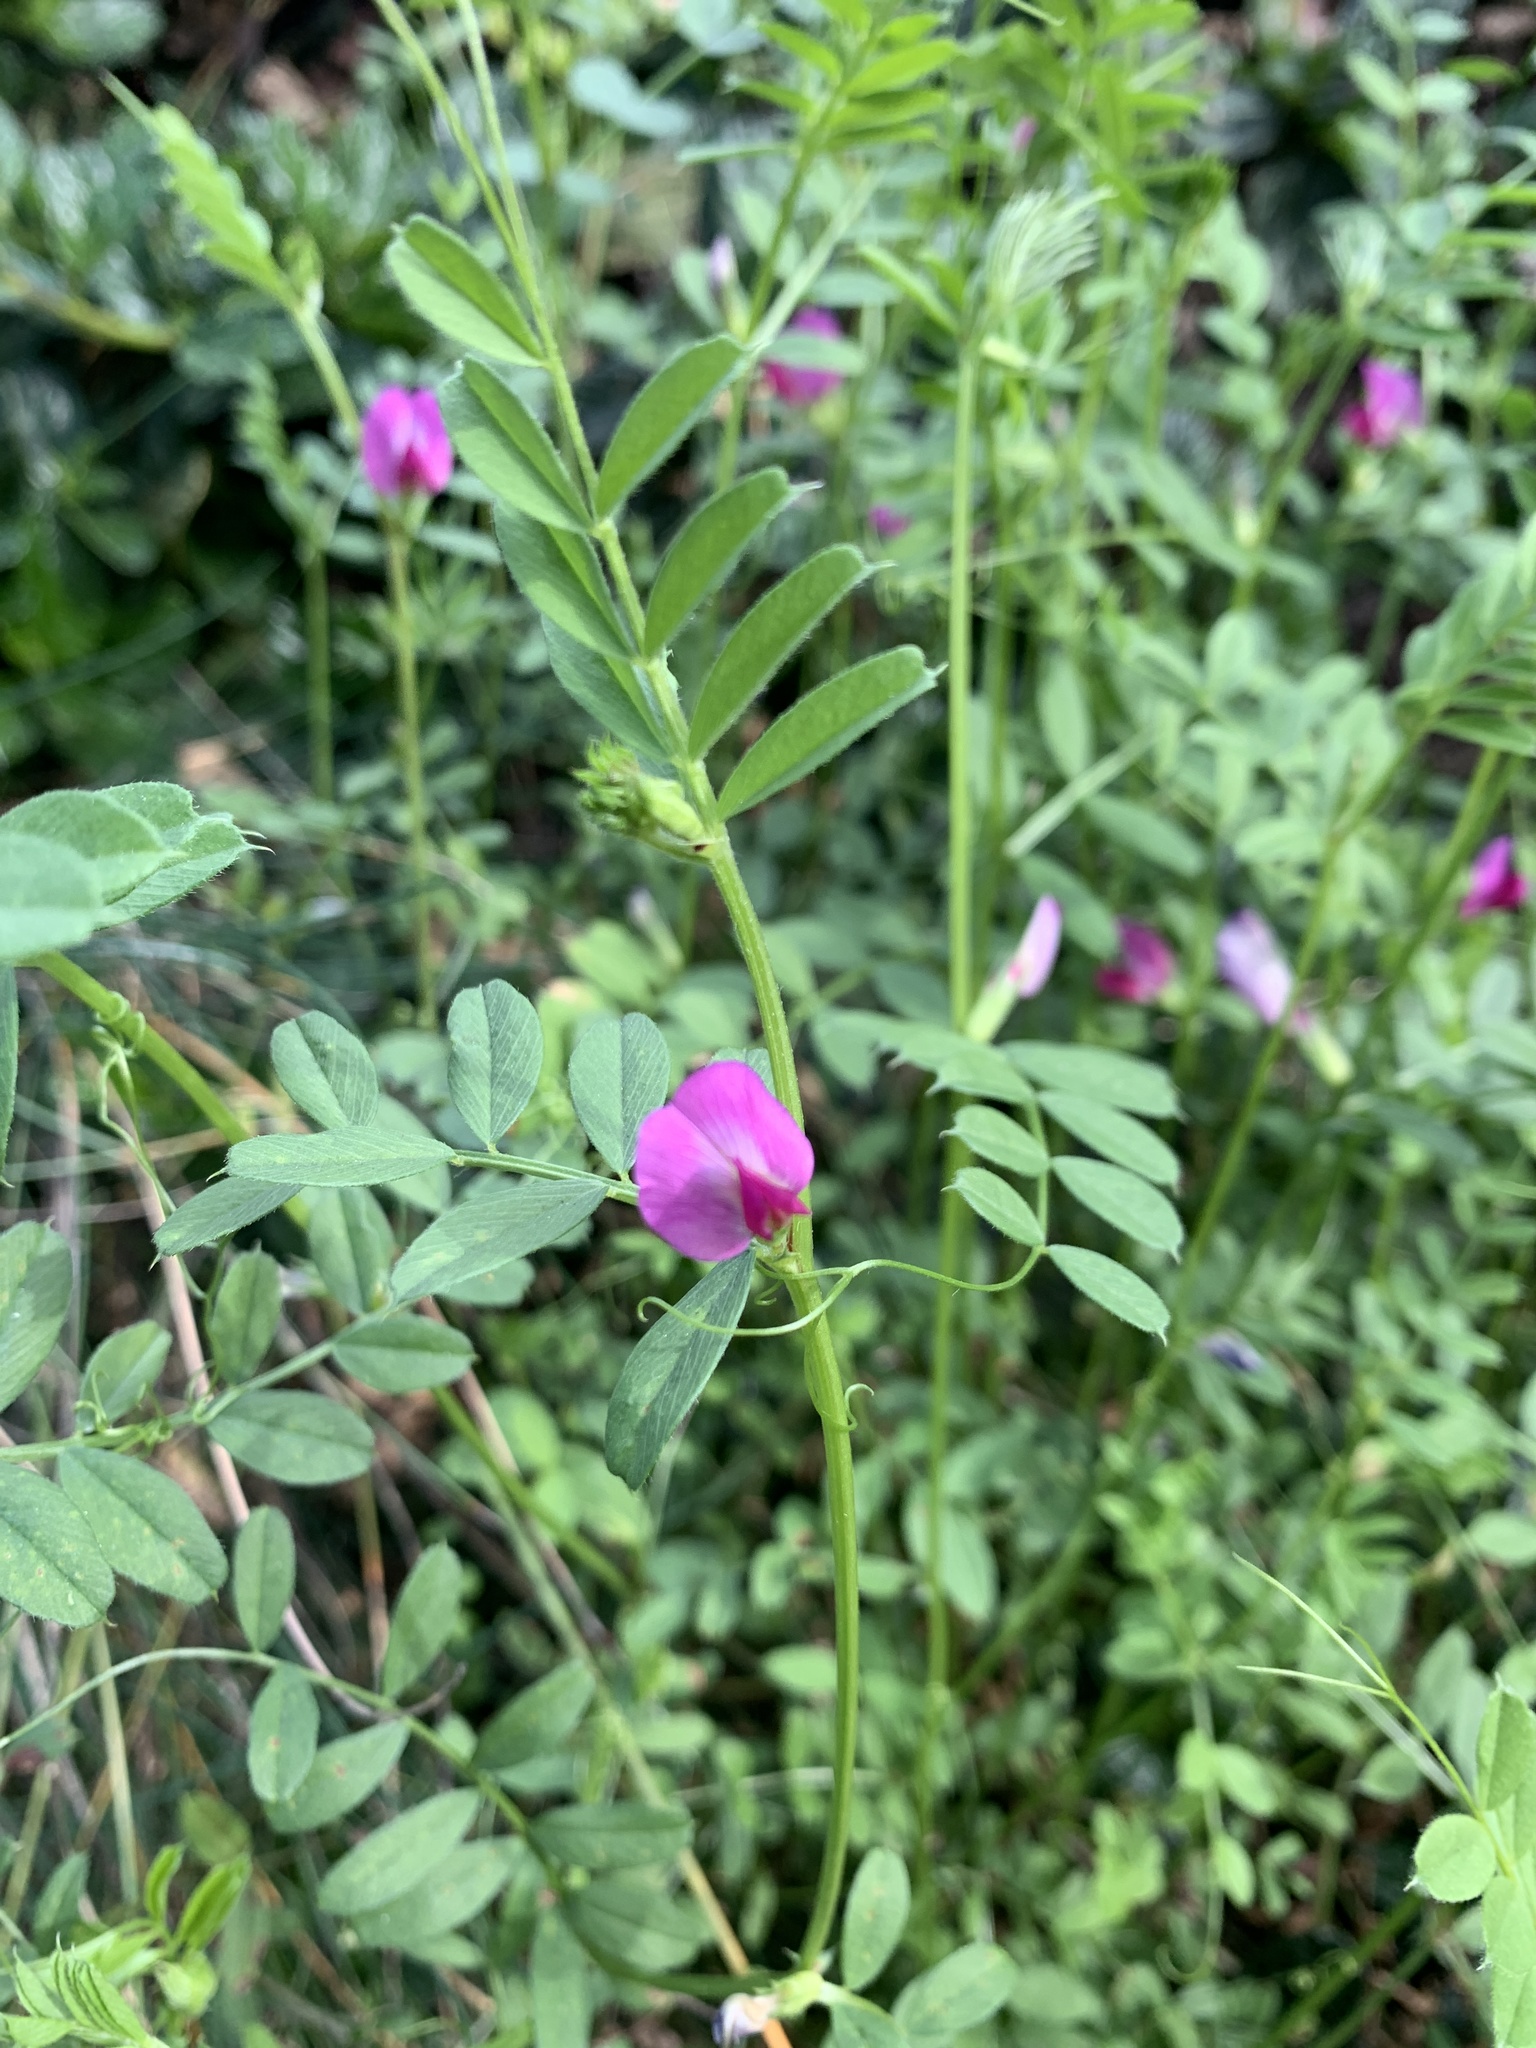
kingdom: Plantae
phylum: Tracheophyta
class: Magnoliopsida
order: Fabales
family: Fabaceae
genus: Vicia
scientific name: Vicia sativa
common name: Garden vetch
